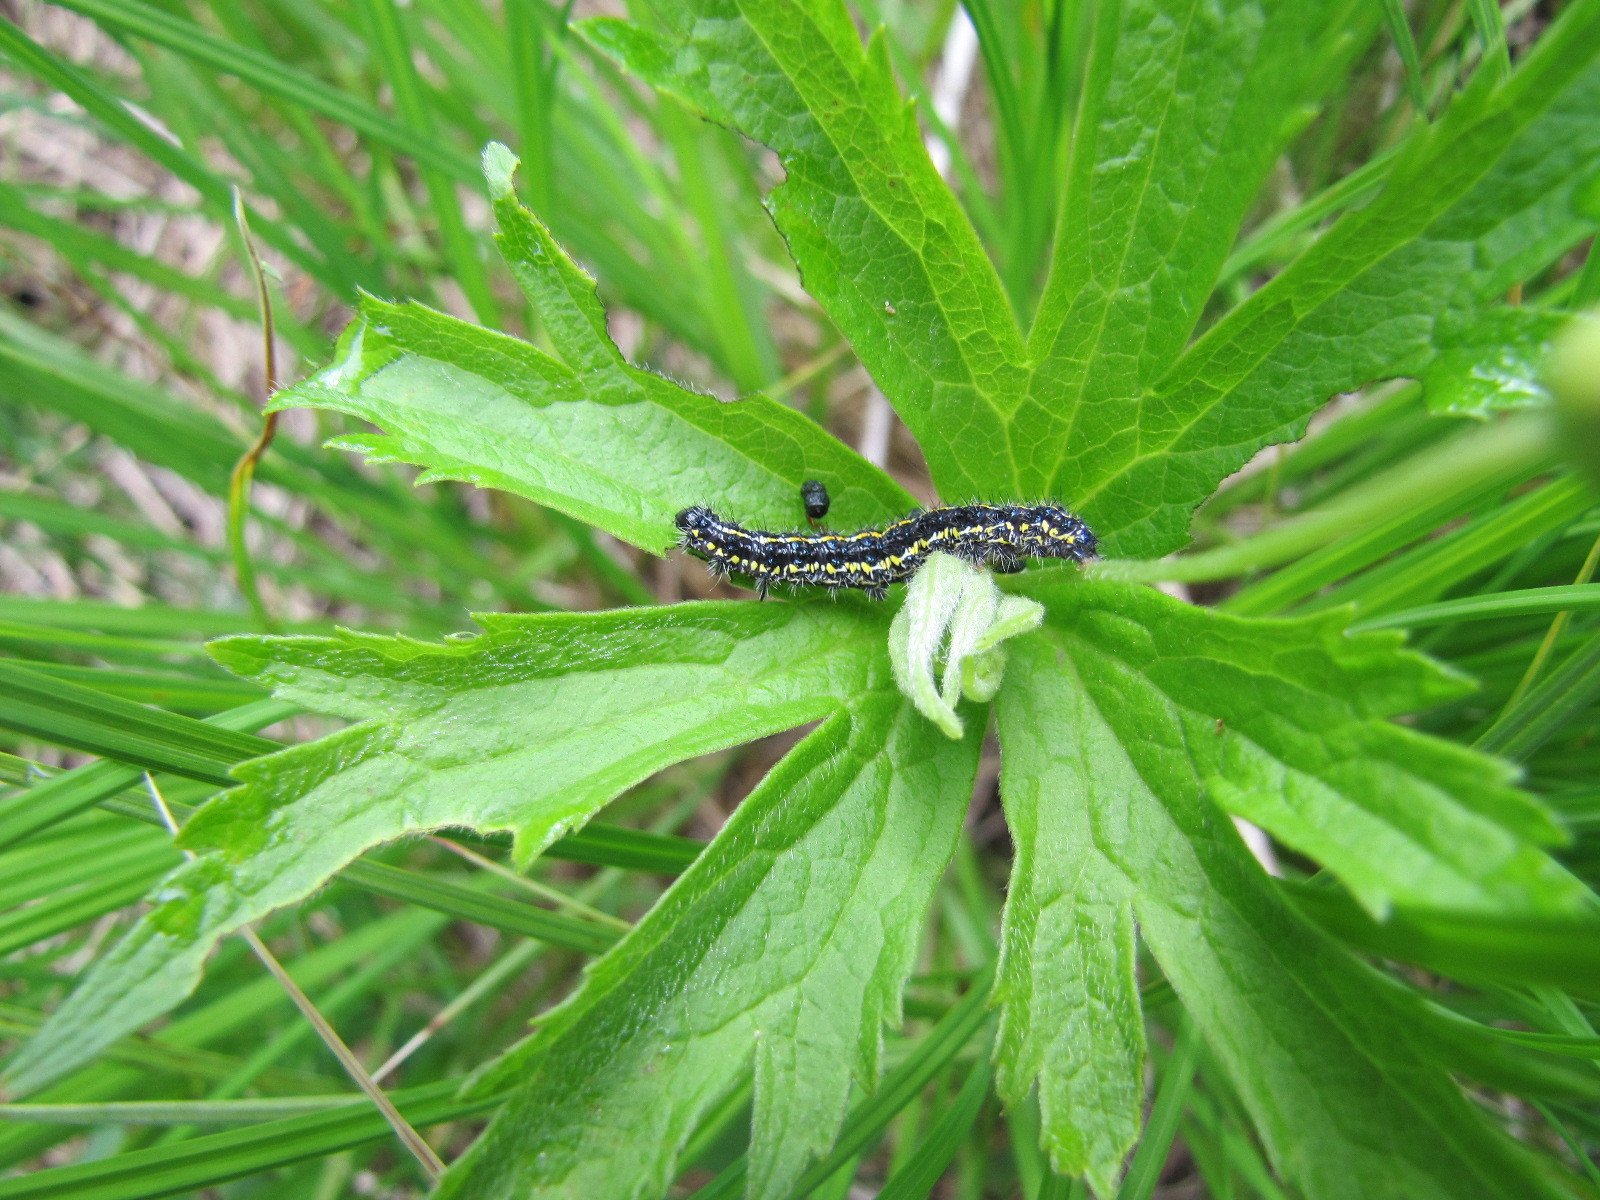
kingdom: Animalia
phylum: Arthropoda
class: Insecta
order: Lepidoptera
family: Erebidae
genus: Haploa
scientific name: Haploa reversa
